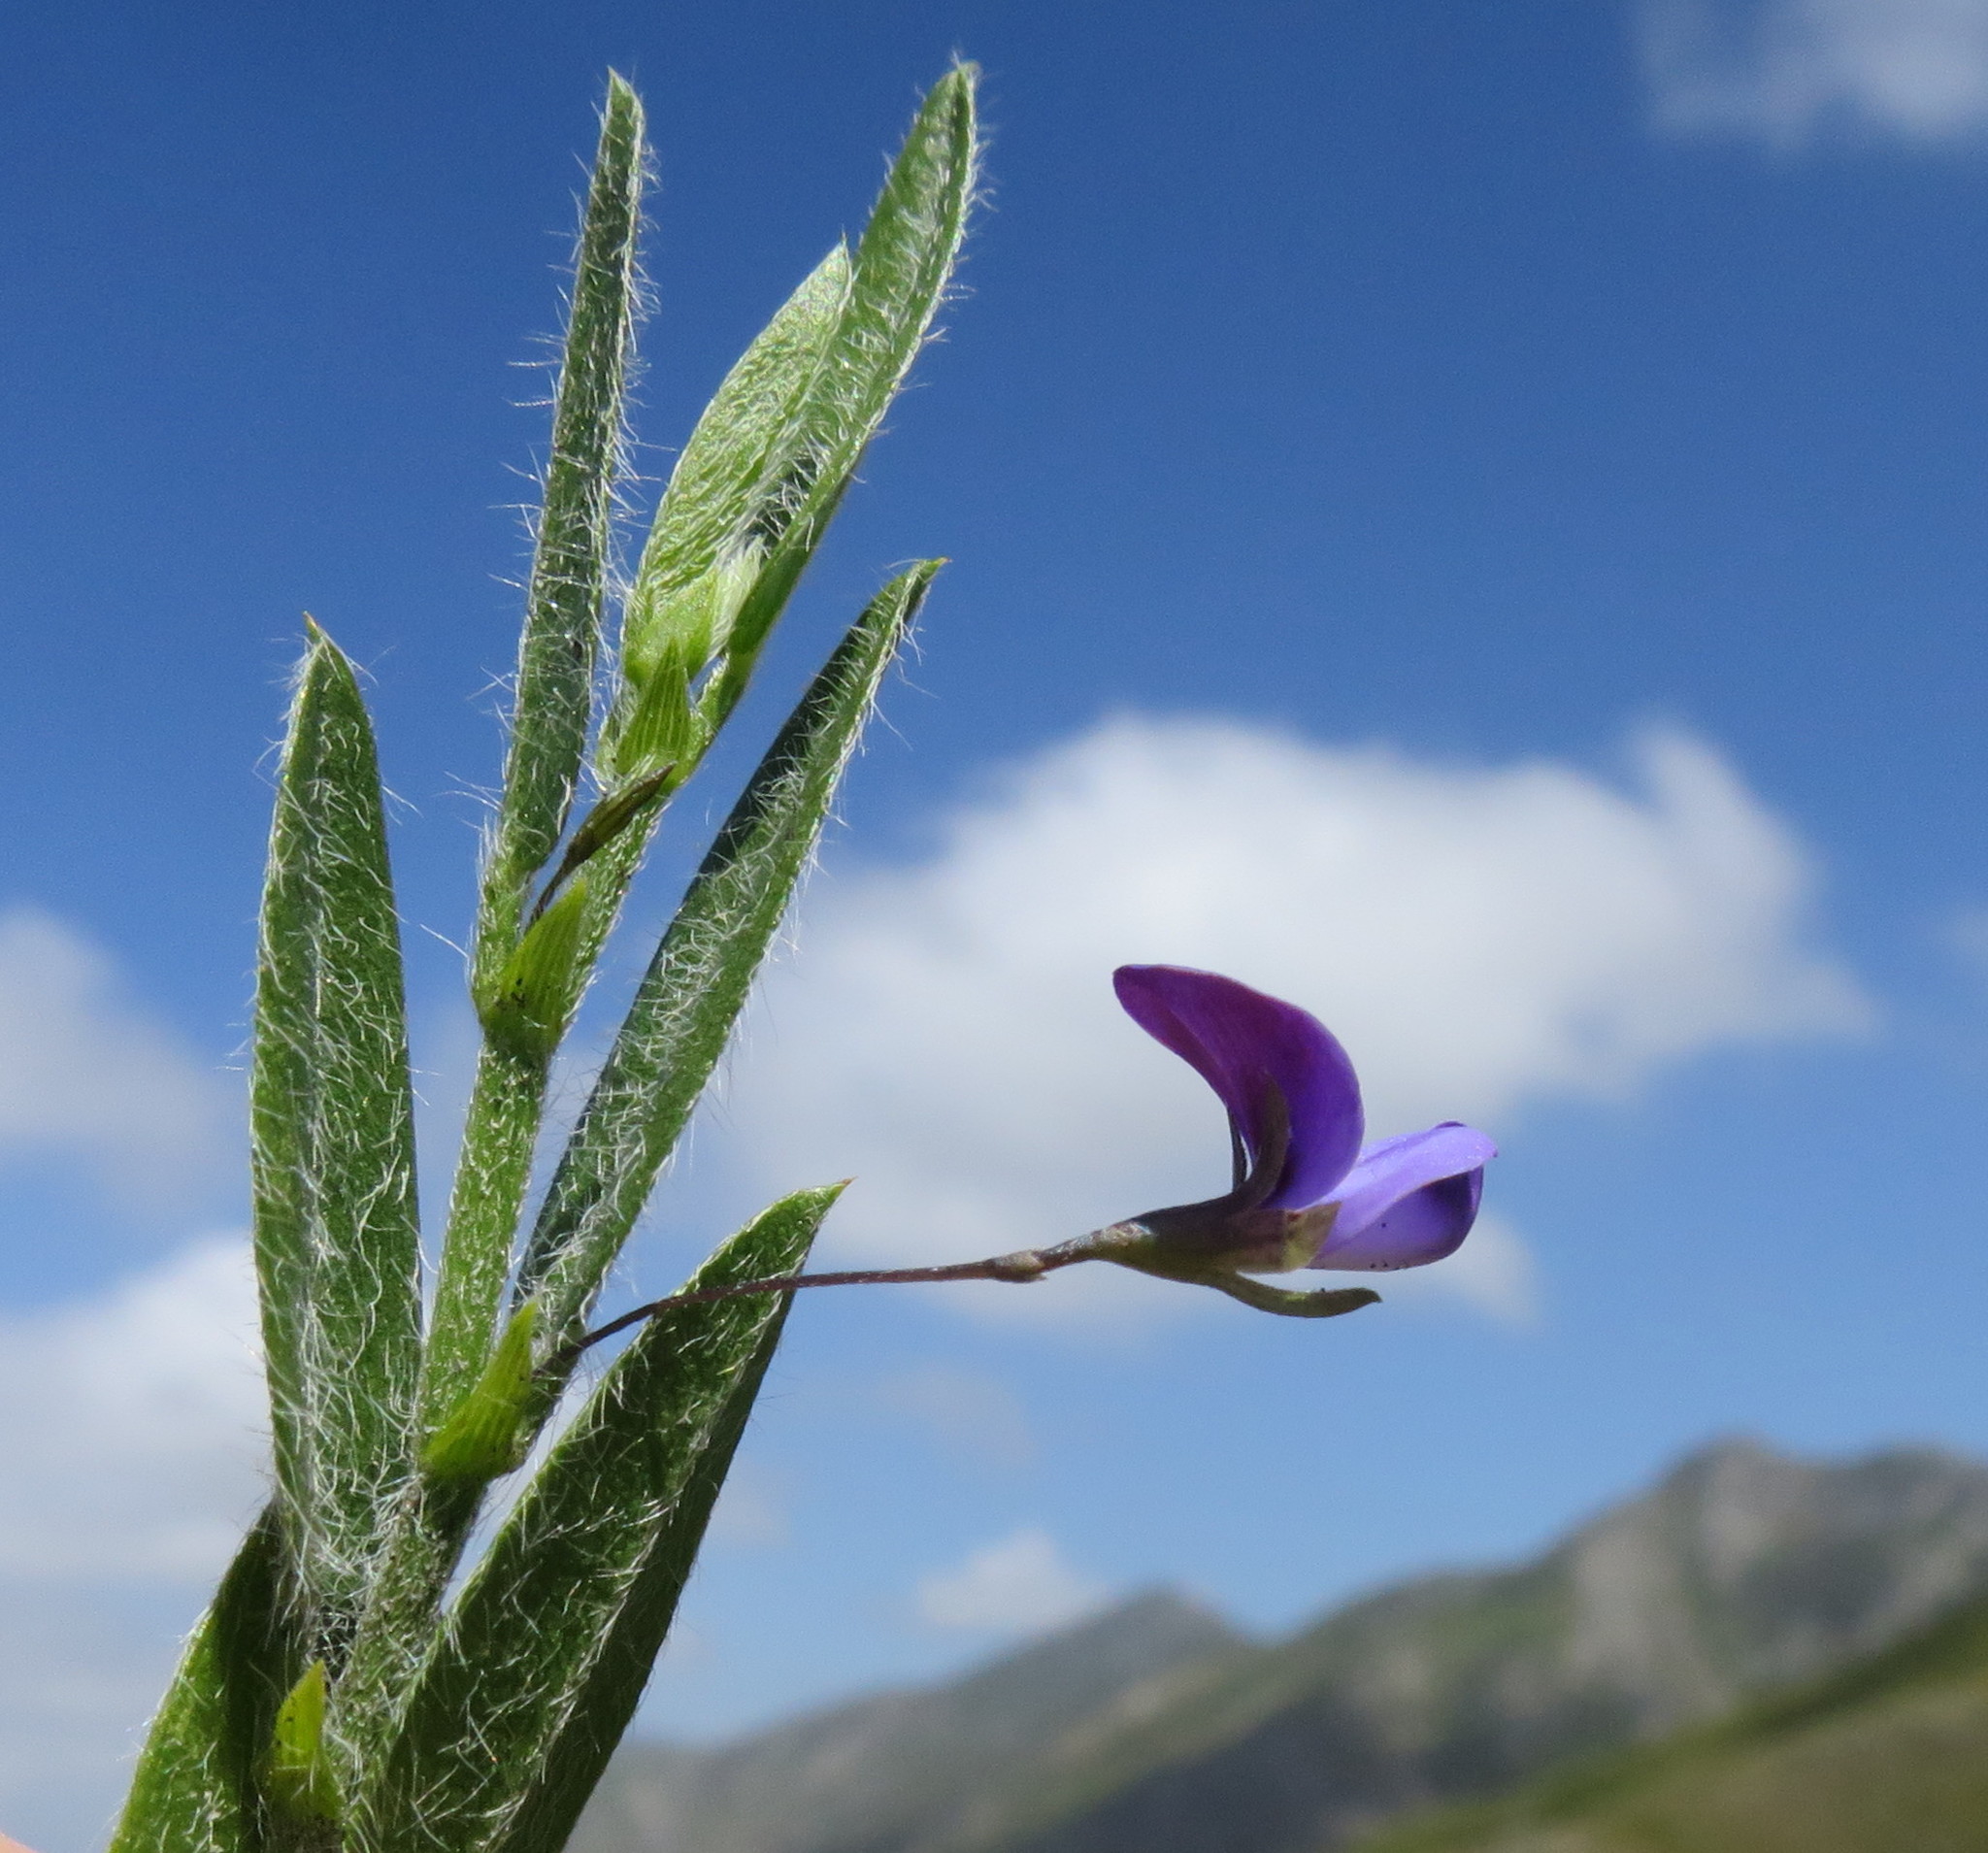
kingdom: Plantae
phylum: Tracheophyta
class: Magnoliopsida
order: Fabales
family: Fabaceae
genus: Psoralea
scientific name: Psoralea plauta
